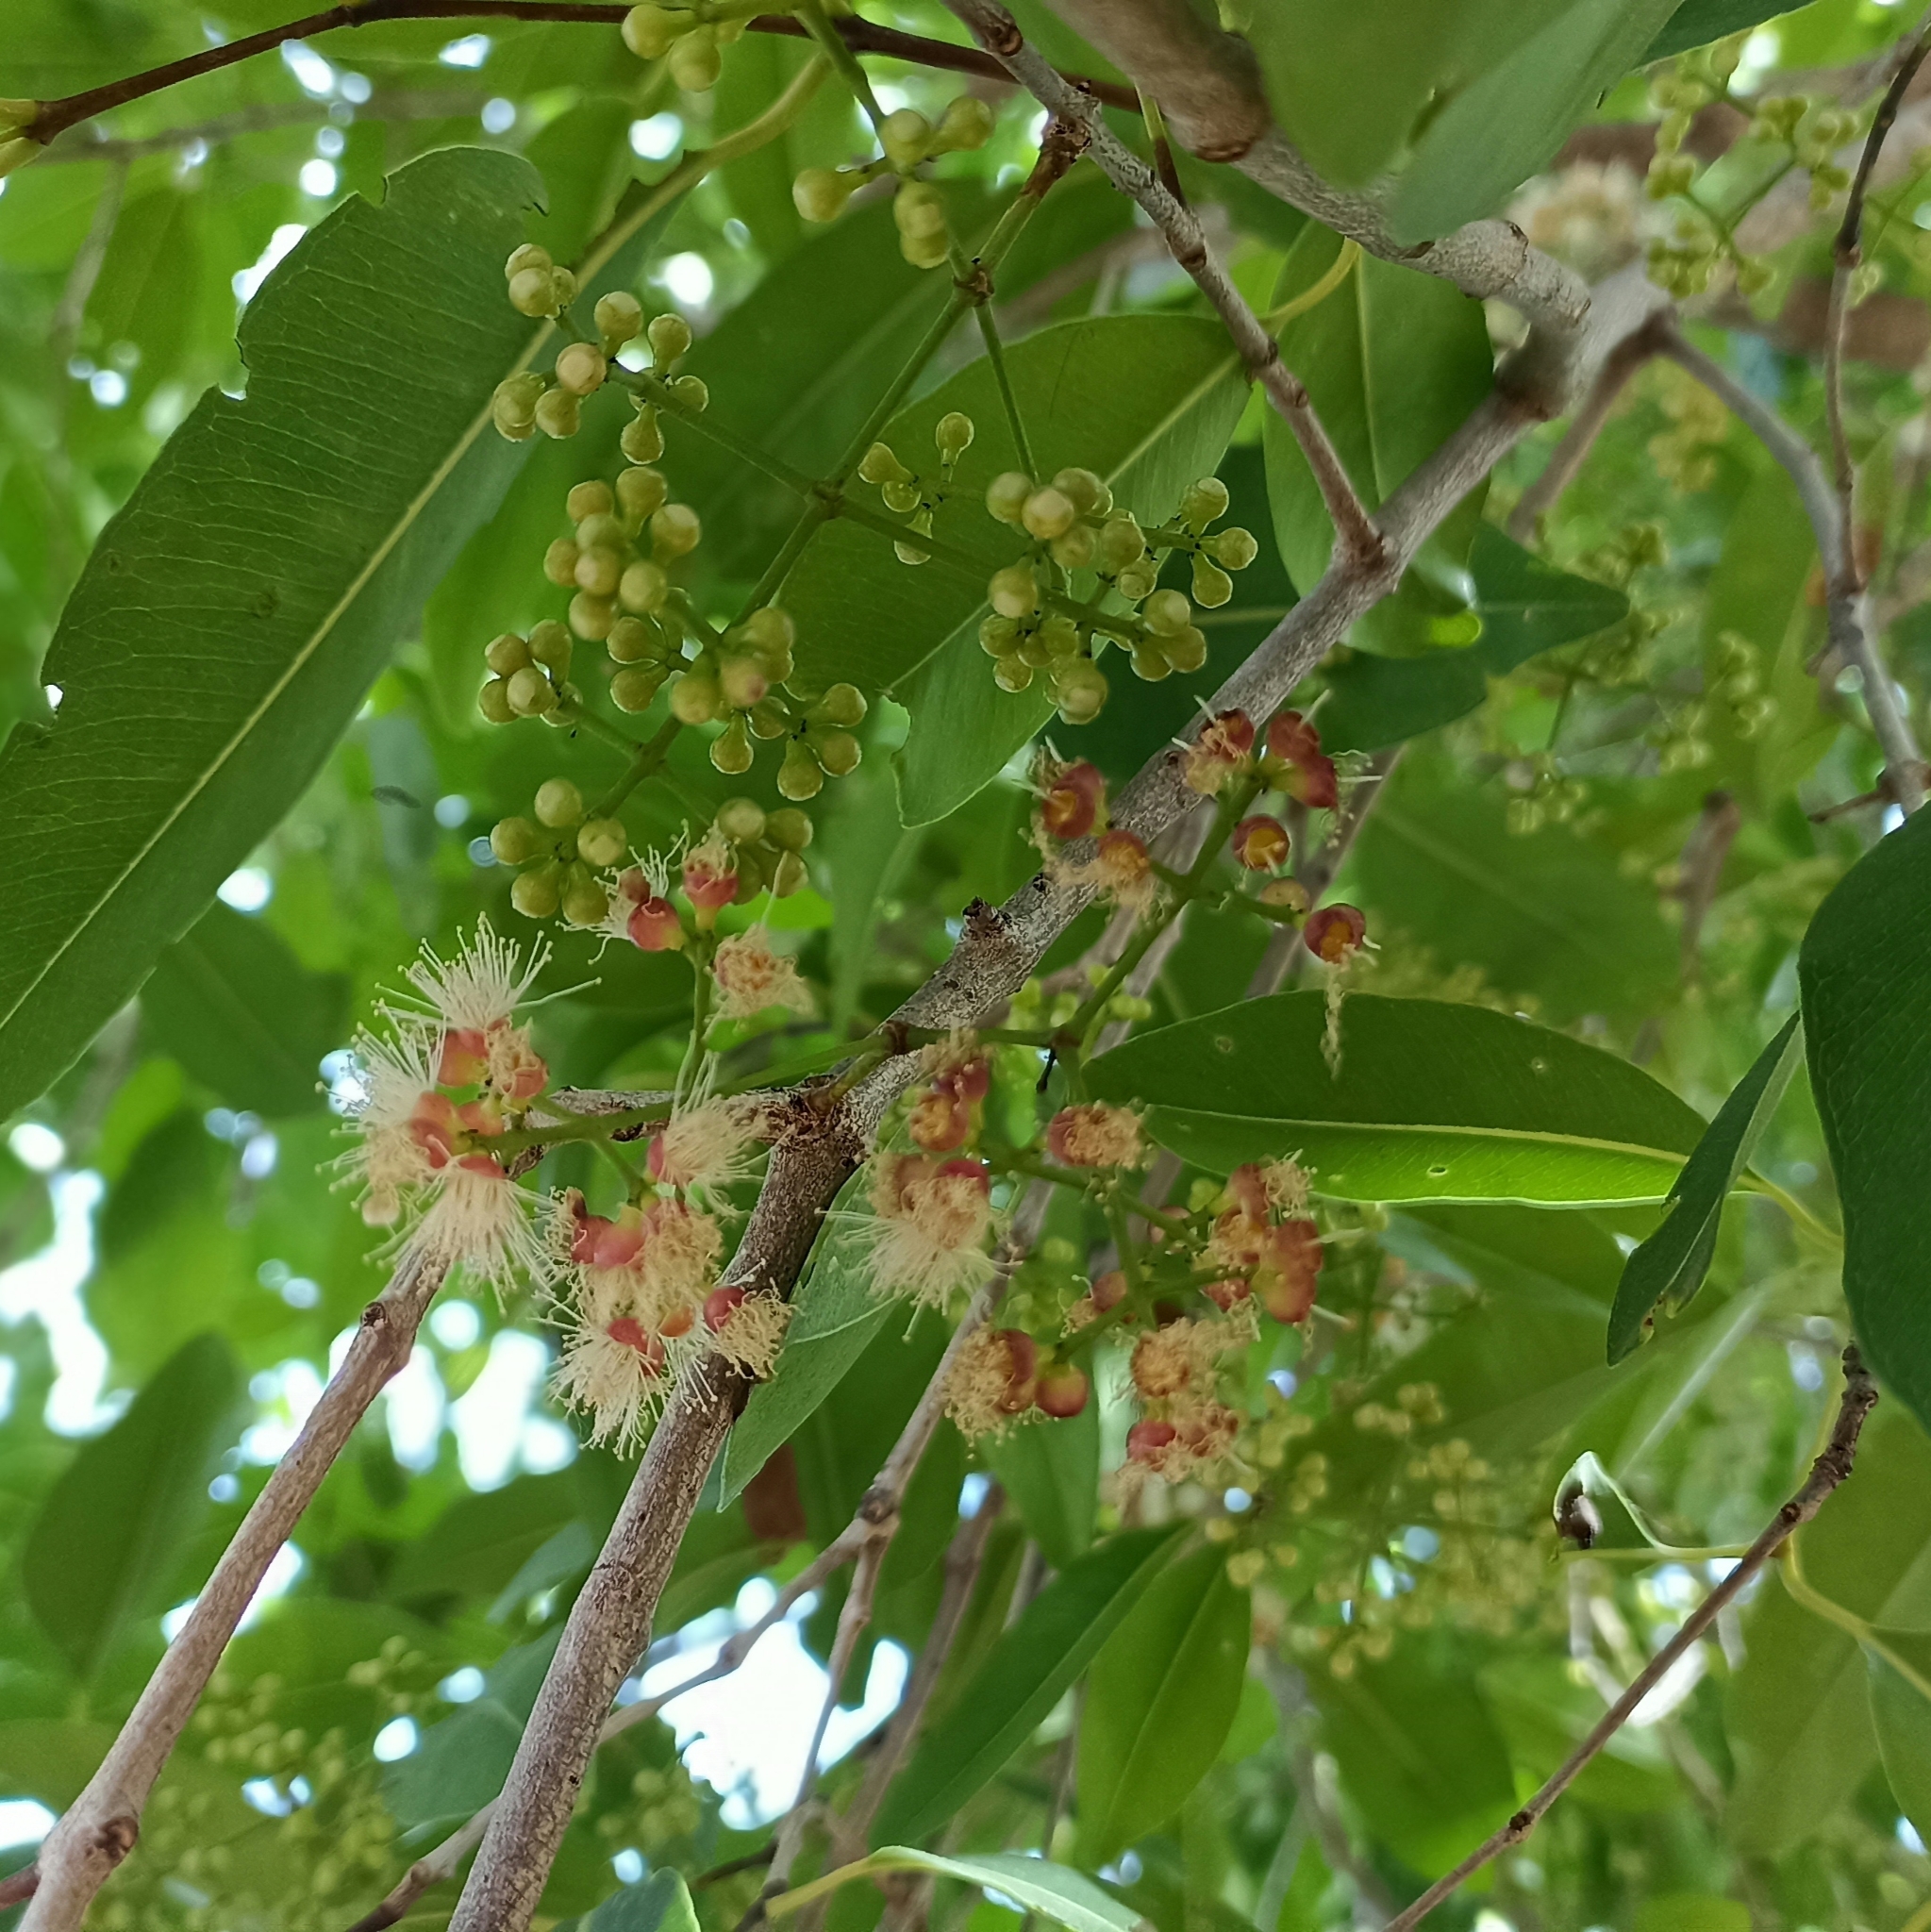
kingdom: Plantae
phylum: Tracheophyta
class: Magnoliopsida
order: Myrtales
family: Myrtaceae
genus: Syzygium
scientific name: Syzygium cumini
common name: Java plum
